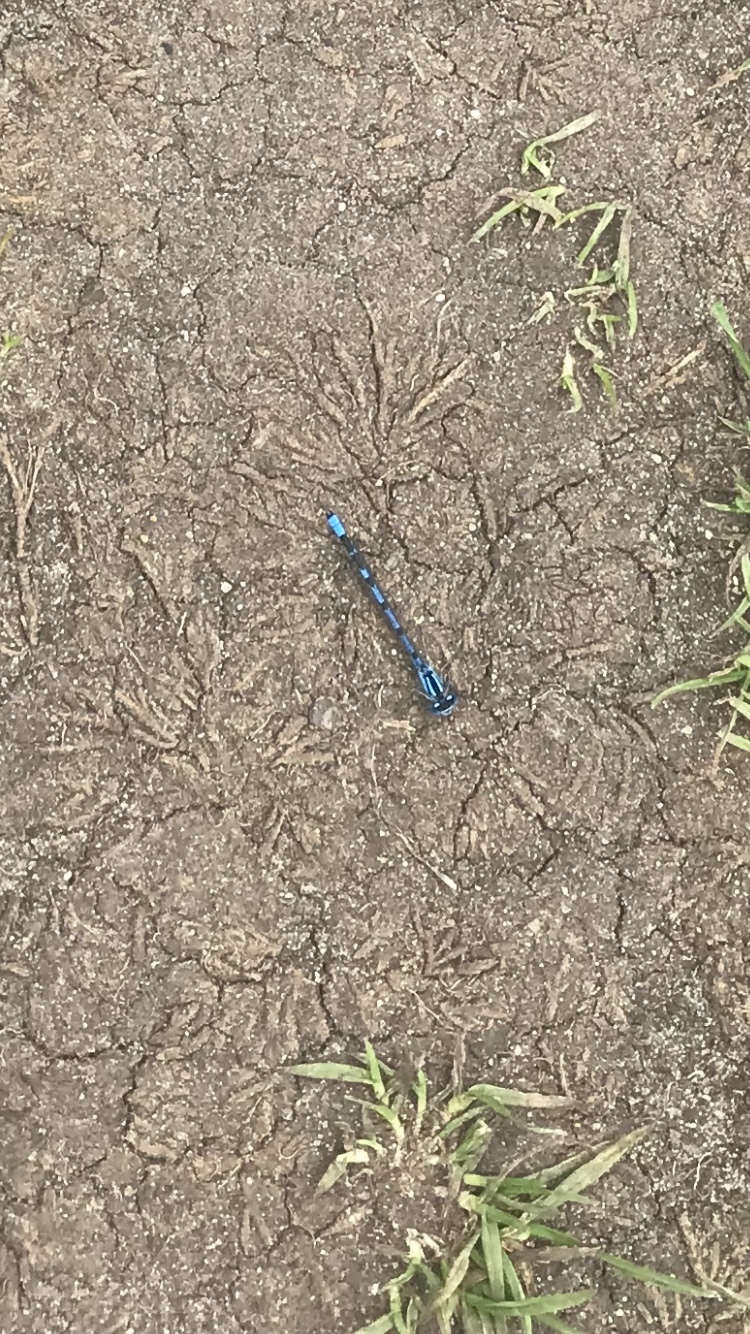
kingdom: Animalia
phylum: Arthropoda
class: Insecta
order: Odonata
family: Coenagrionidae
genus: Enallagma
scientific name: Enallagma cyathigerum
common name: Common blue damselfly
